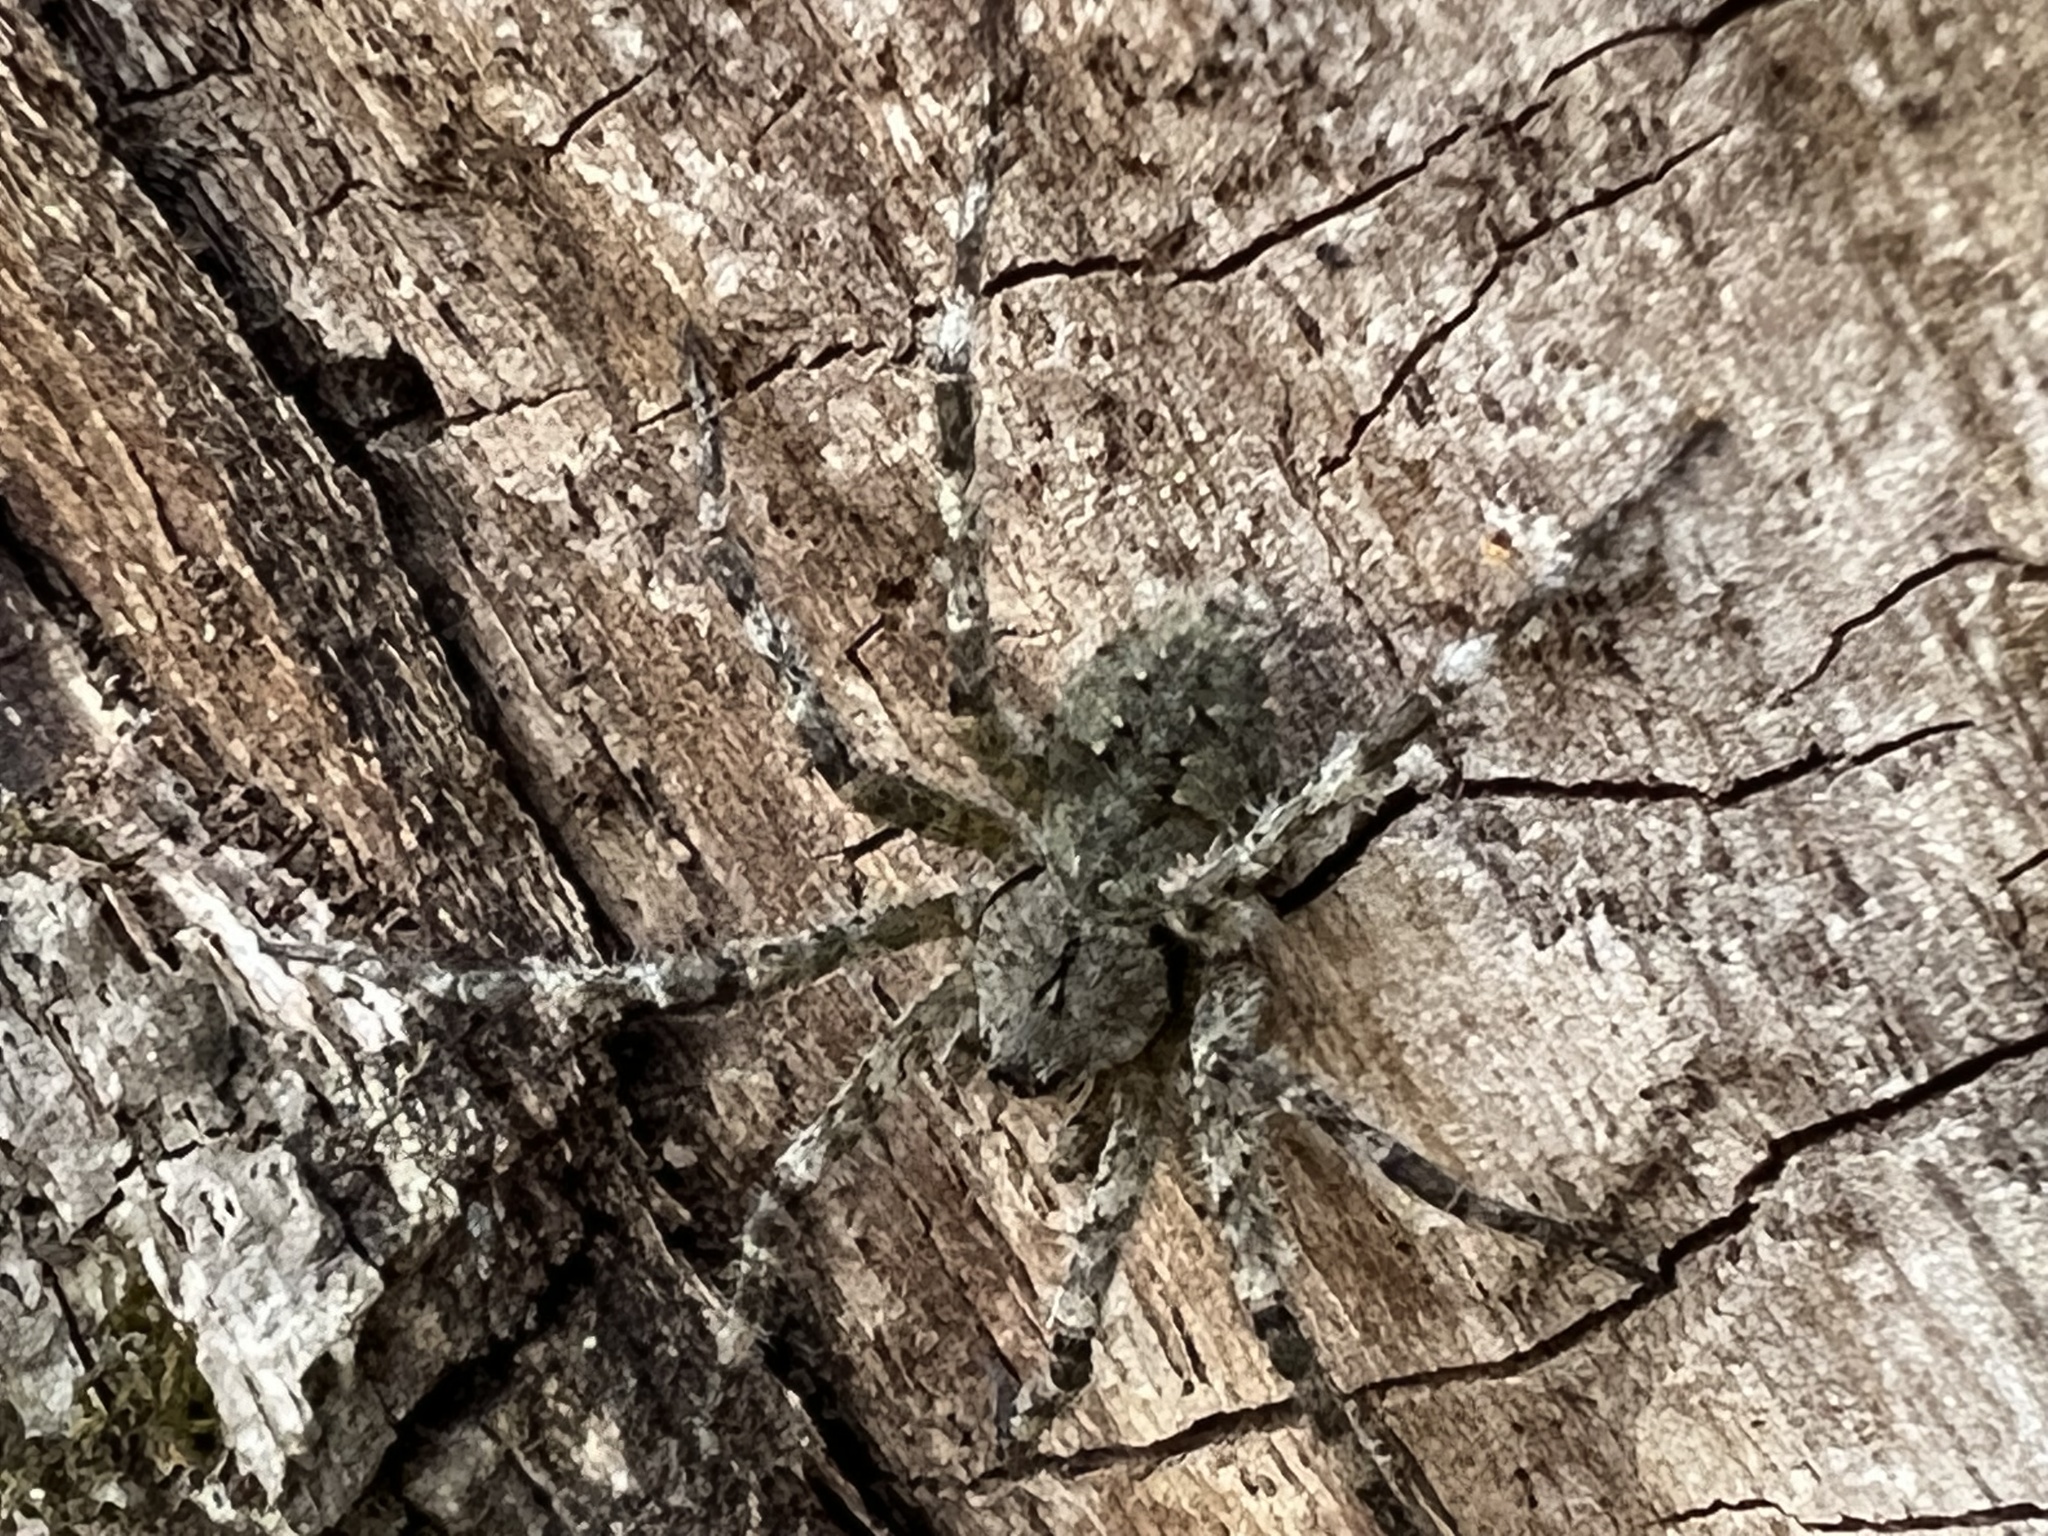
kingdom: Animalia
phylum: Arthropoda
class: Arachnida
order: Araneae
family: Pisauridae
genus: Dolomedes
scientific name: Dolomedes albineus
